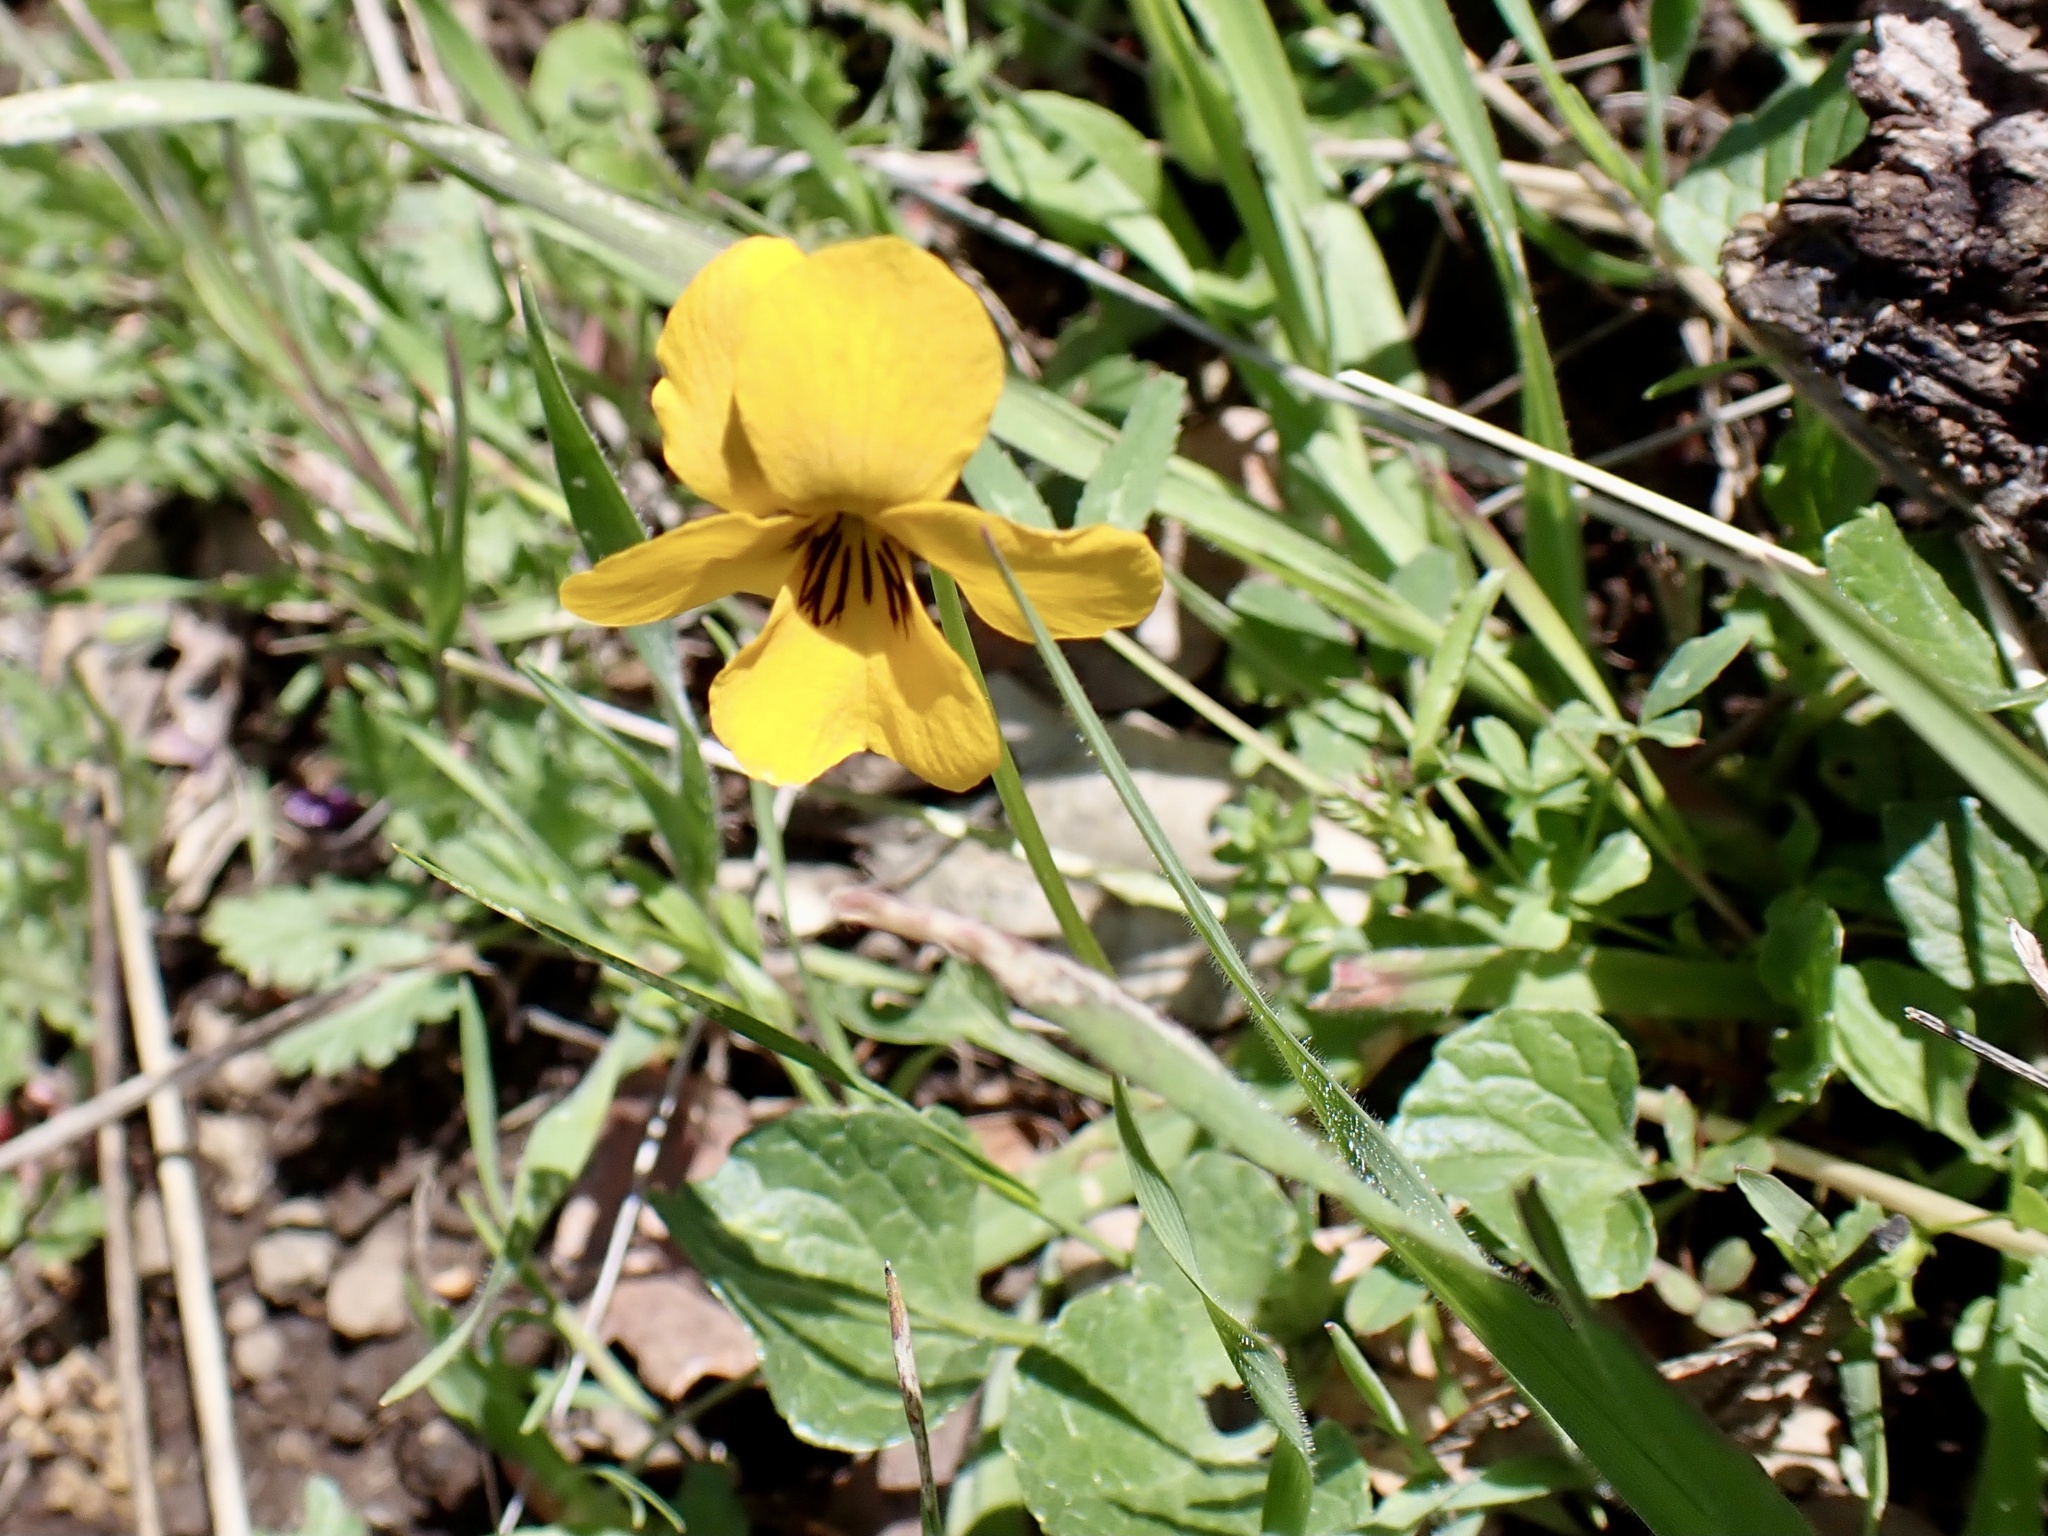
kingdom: Plantae
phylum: Tracheophyta
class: Magnoliopsida
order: Malpighiales
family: Violaceae
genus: Viola
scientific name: Viola pedunculata
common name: California golden violet
